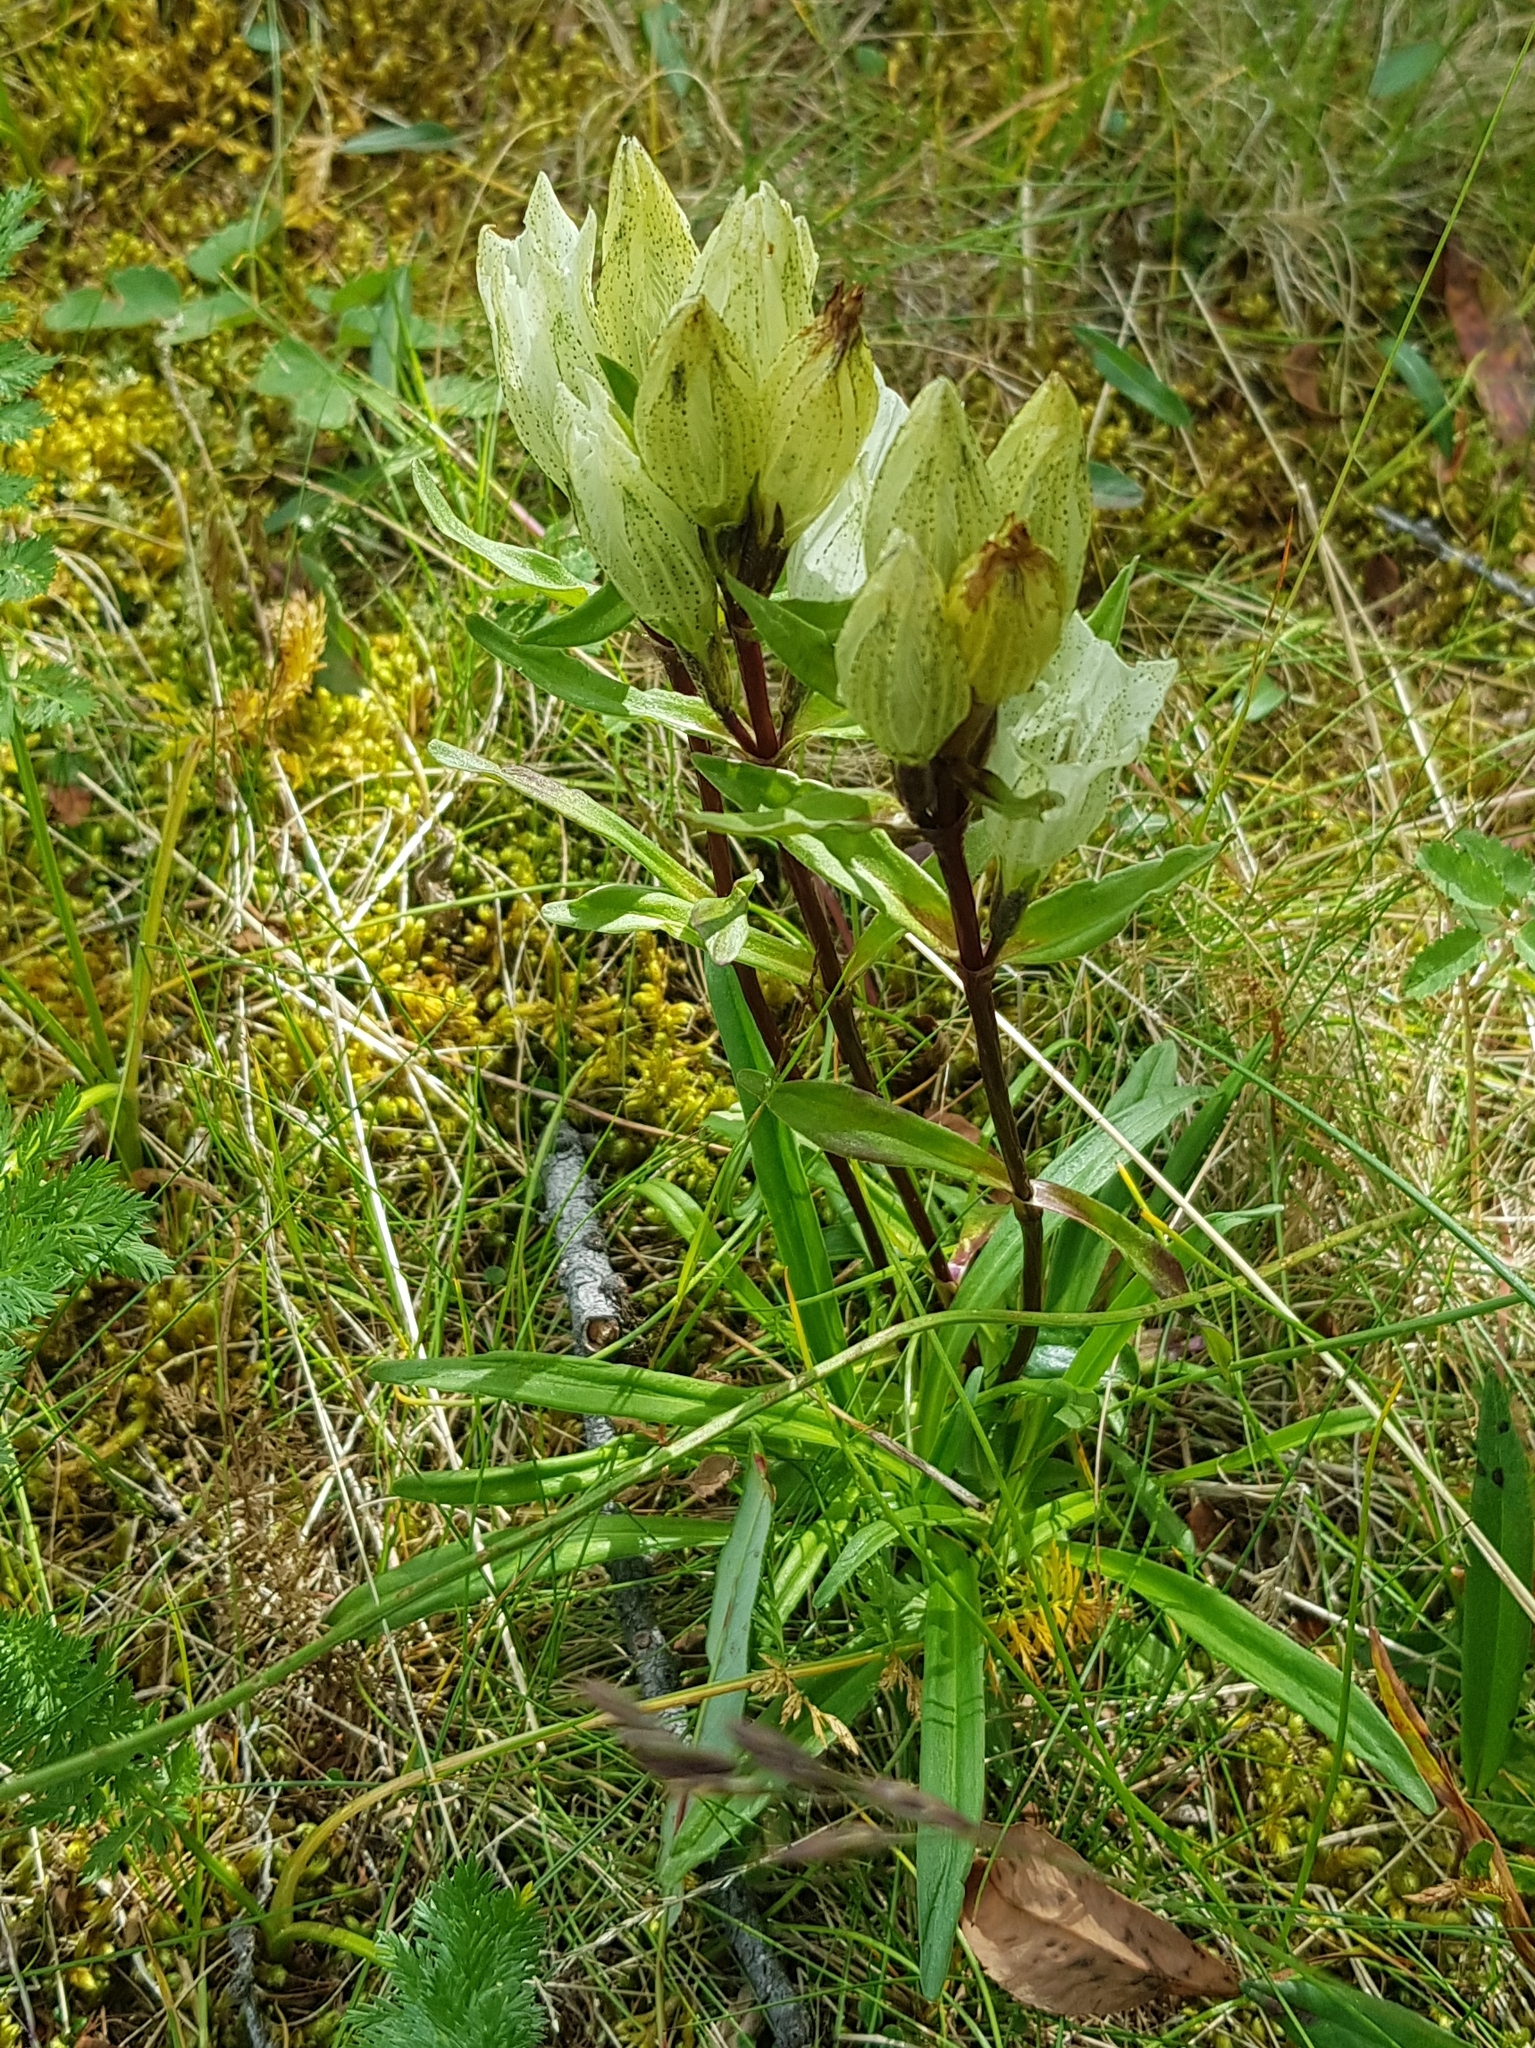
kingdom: Plantae
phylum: Tracheophyta
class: Magnoliopsida
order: Gentianales
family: Gentianaceae
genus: Gentiana
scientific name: Gentiana algida
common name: Arctic gentian
